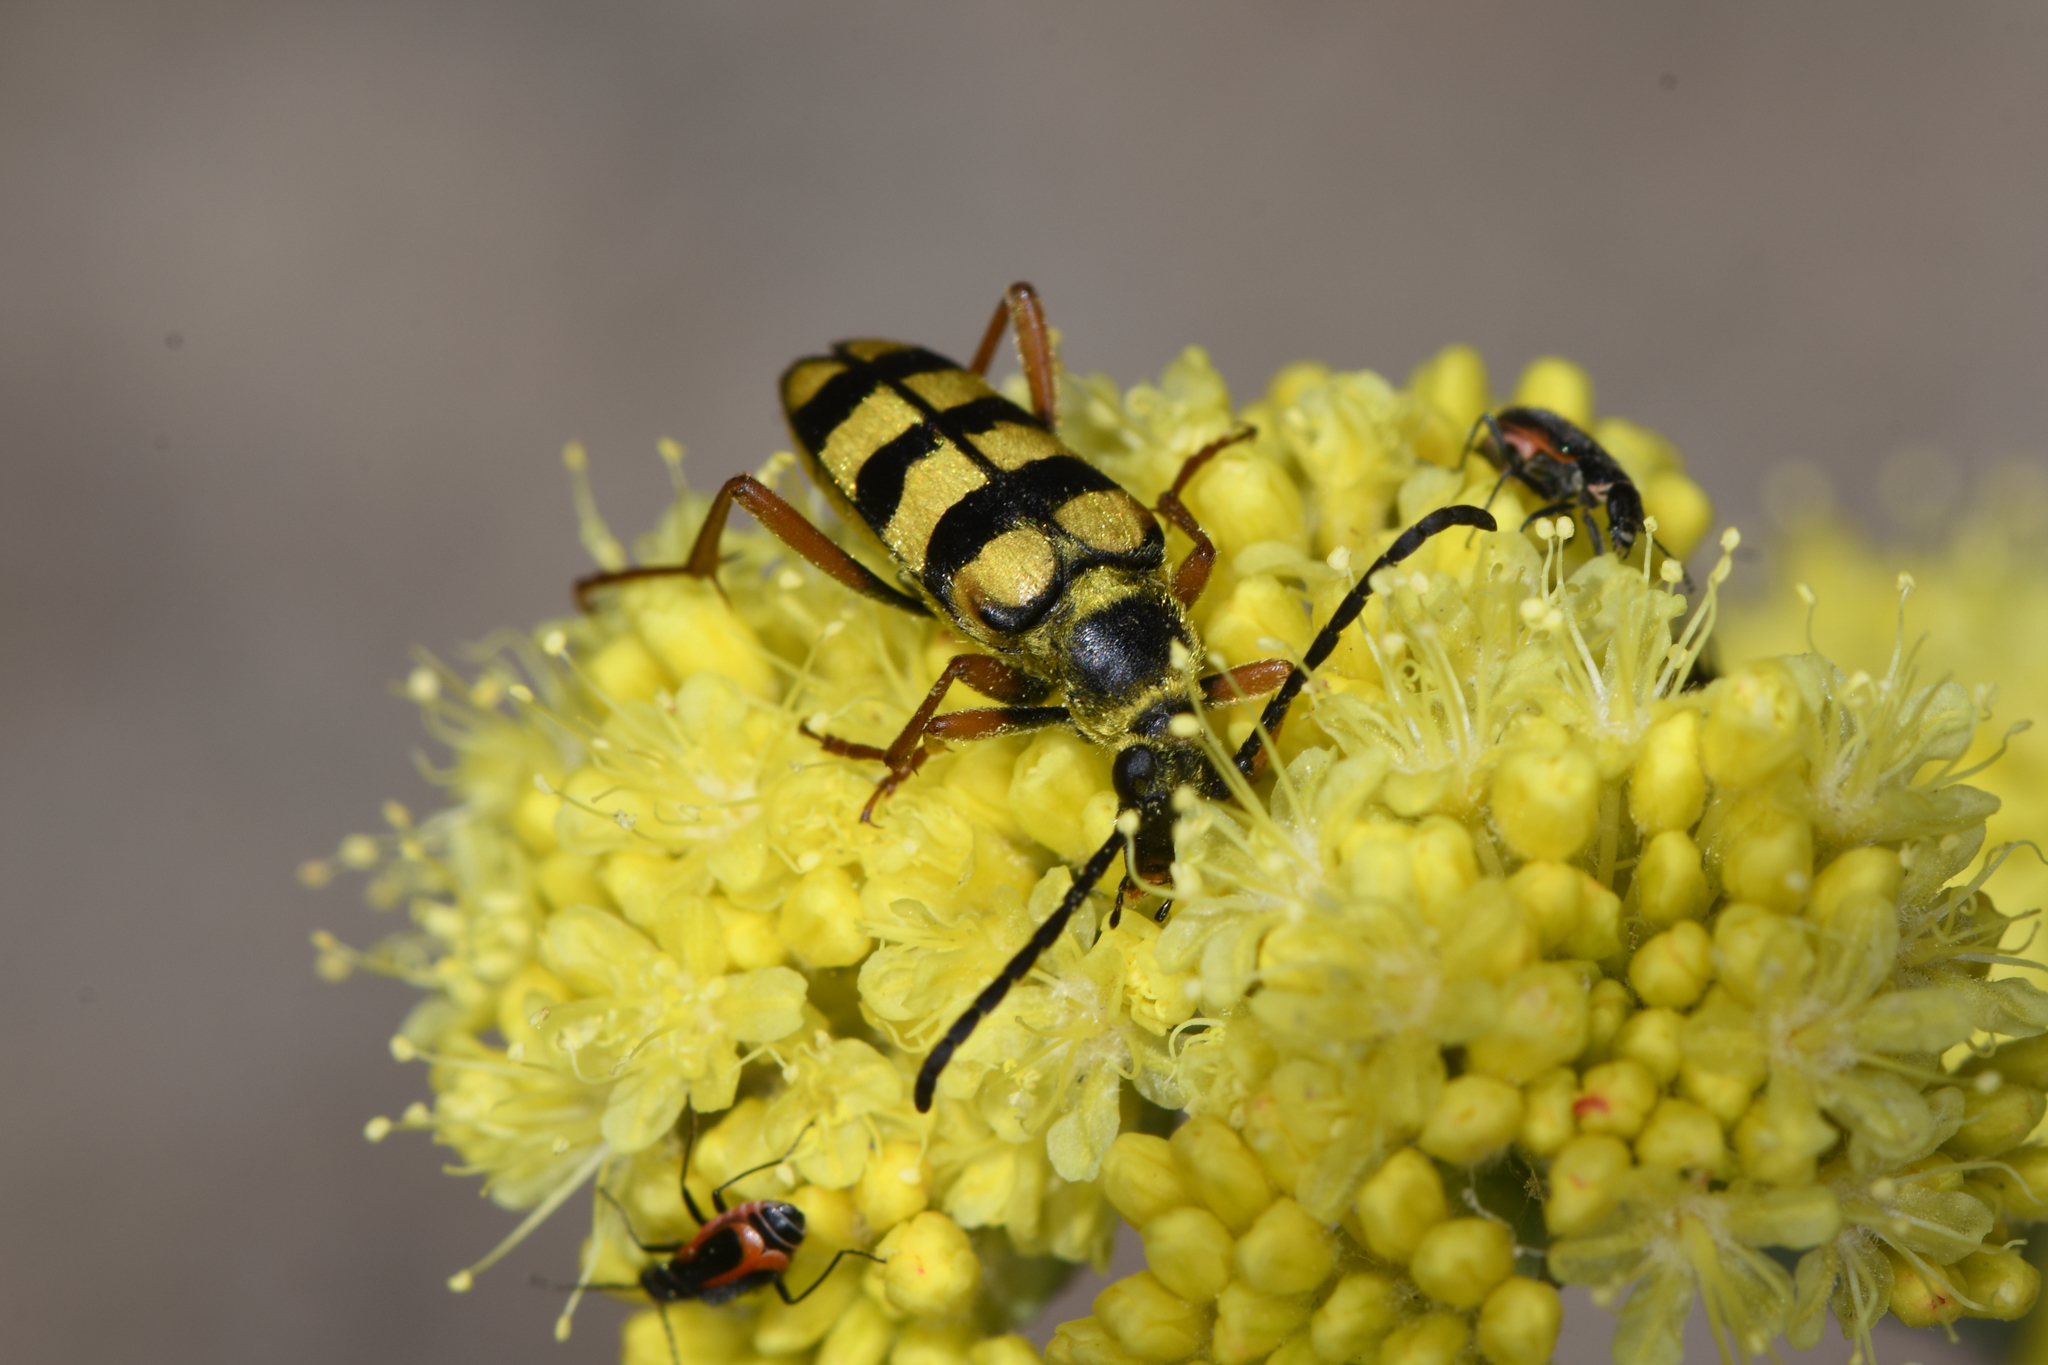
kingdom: Animalia
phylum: Arthropoda
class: Insecta
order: Coleoptera
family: Cerambycidae
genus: Stenostrophia
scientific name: Stenostrophia tribalteata
